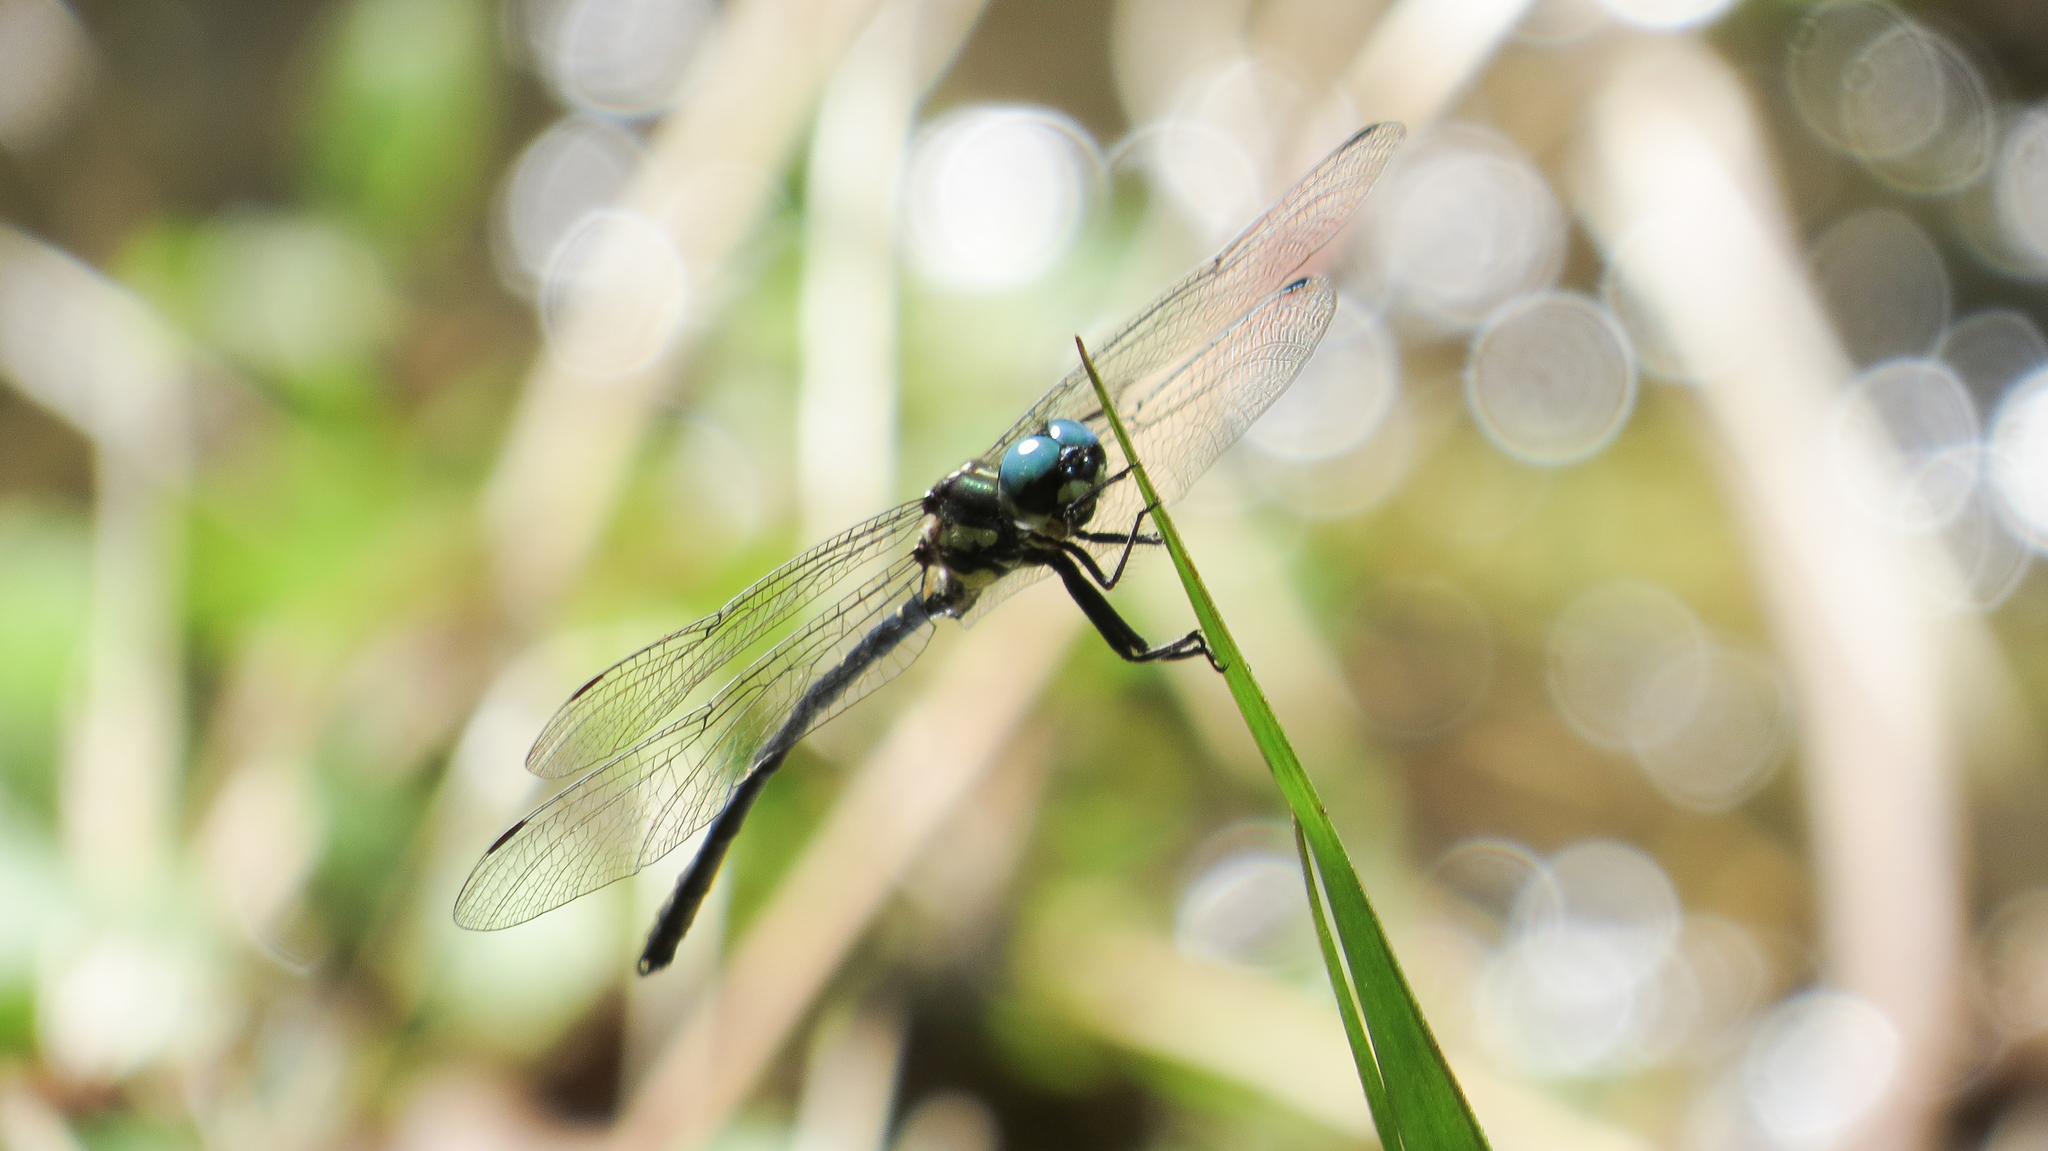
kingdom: Animalia
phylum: Arthropoda
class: Insecta
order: Odonata
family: Synthemistidae
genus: Eusynthemis
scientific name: Eusynthemis nigra
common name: Black tigertail
